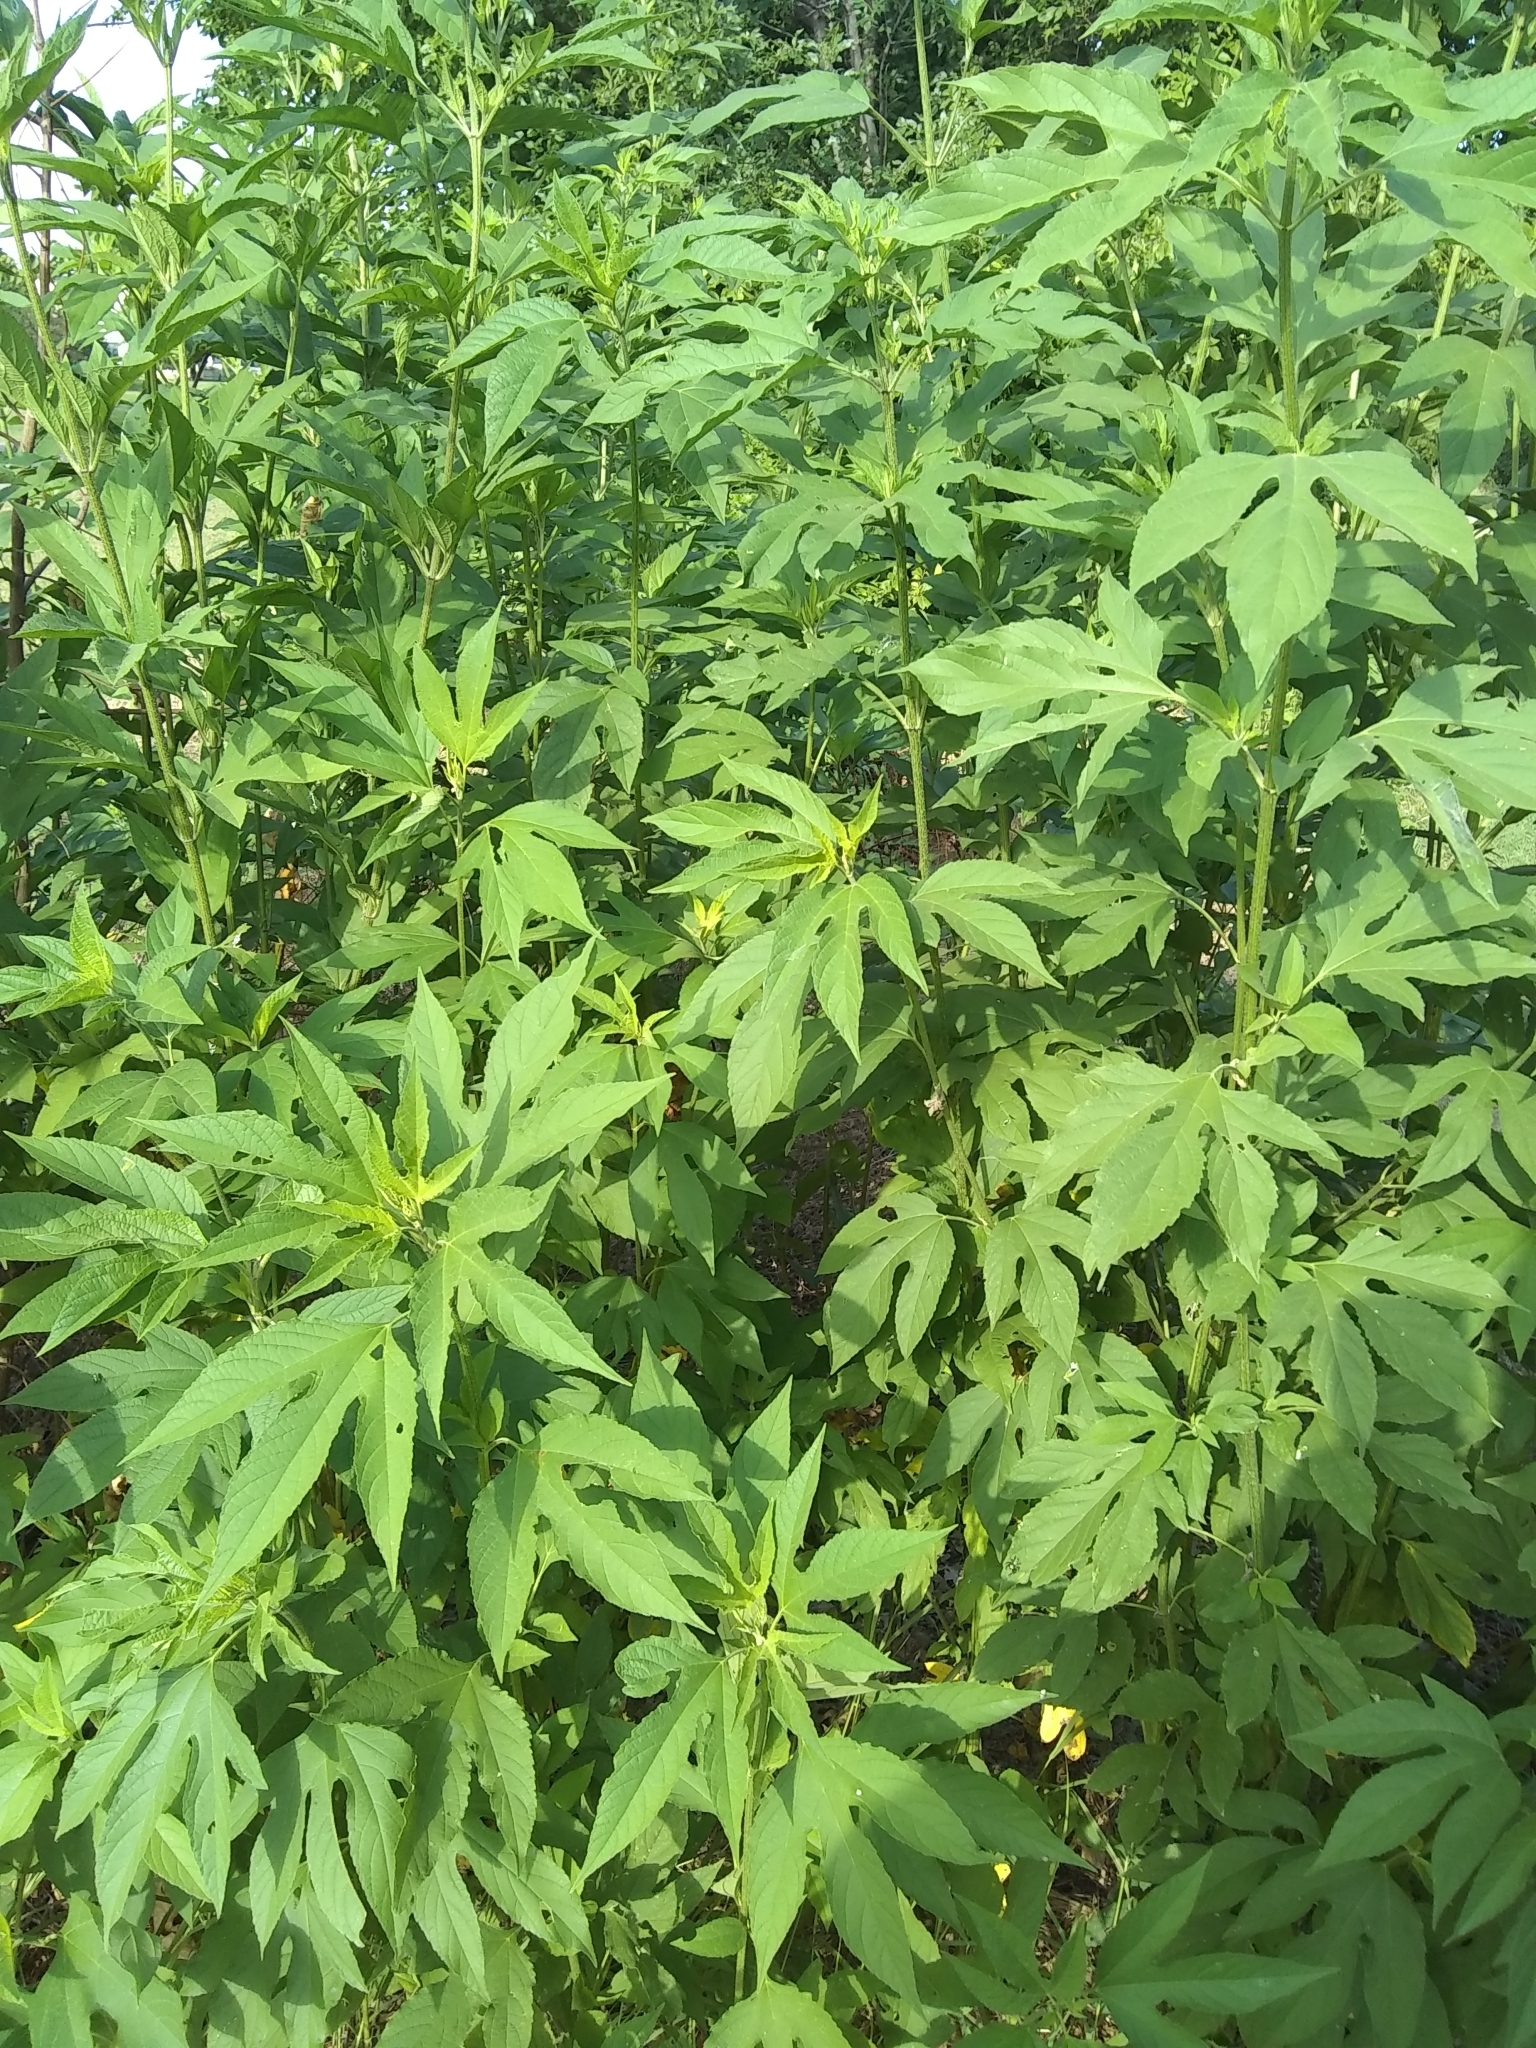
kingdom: Plantae
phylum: Tracheophyta
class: Magnoliopsida
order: Asterales
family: Asteraceae
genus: Ambrosia
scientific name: Ambrosia trifida
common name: Giant ragweed
